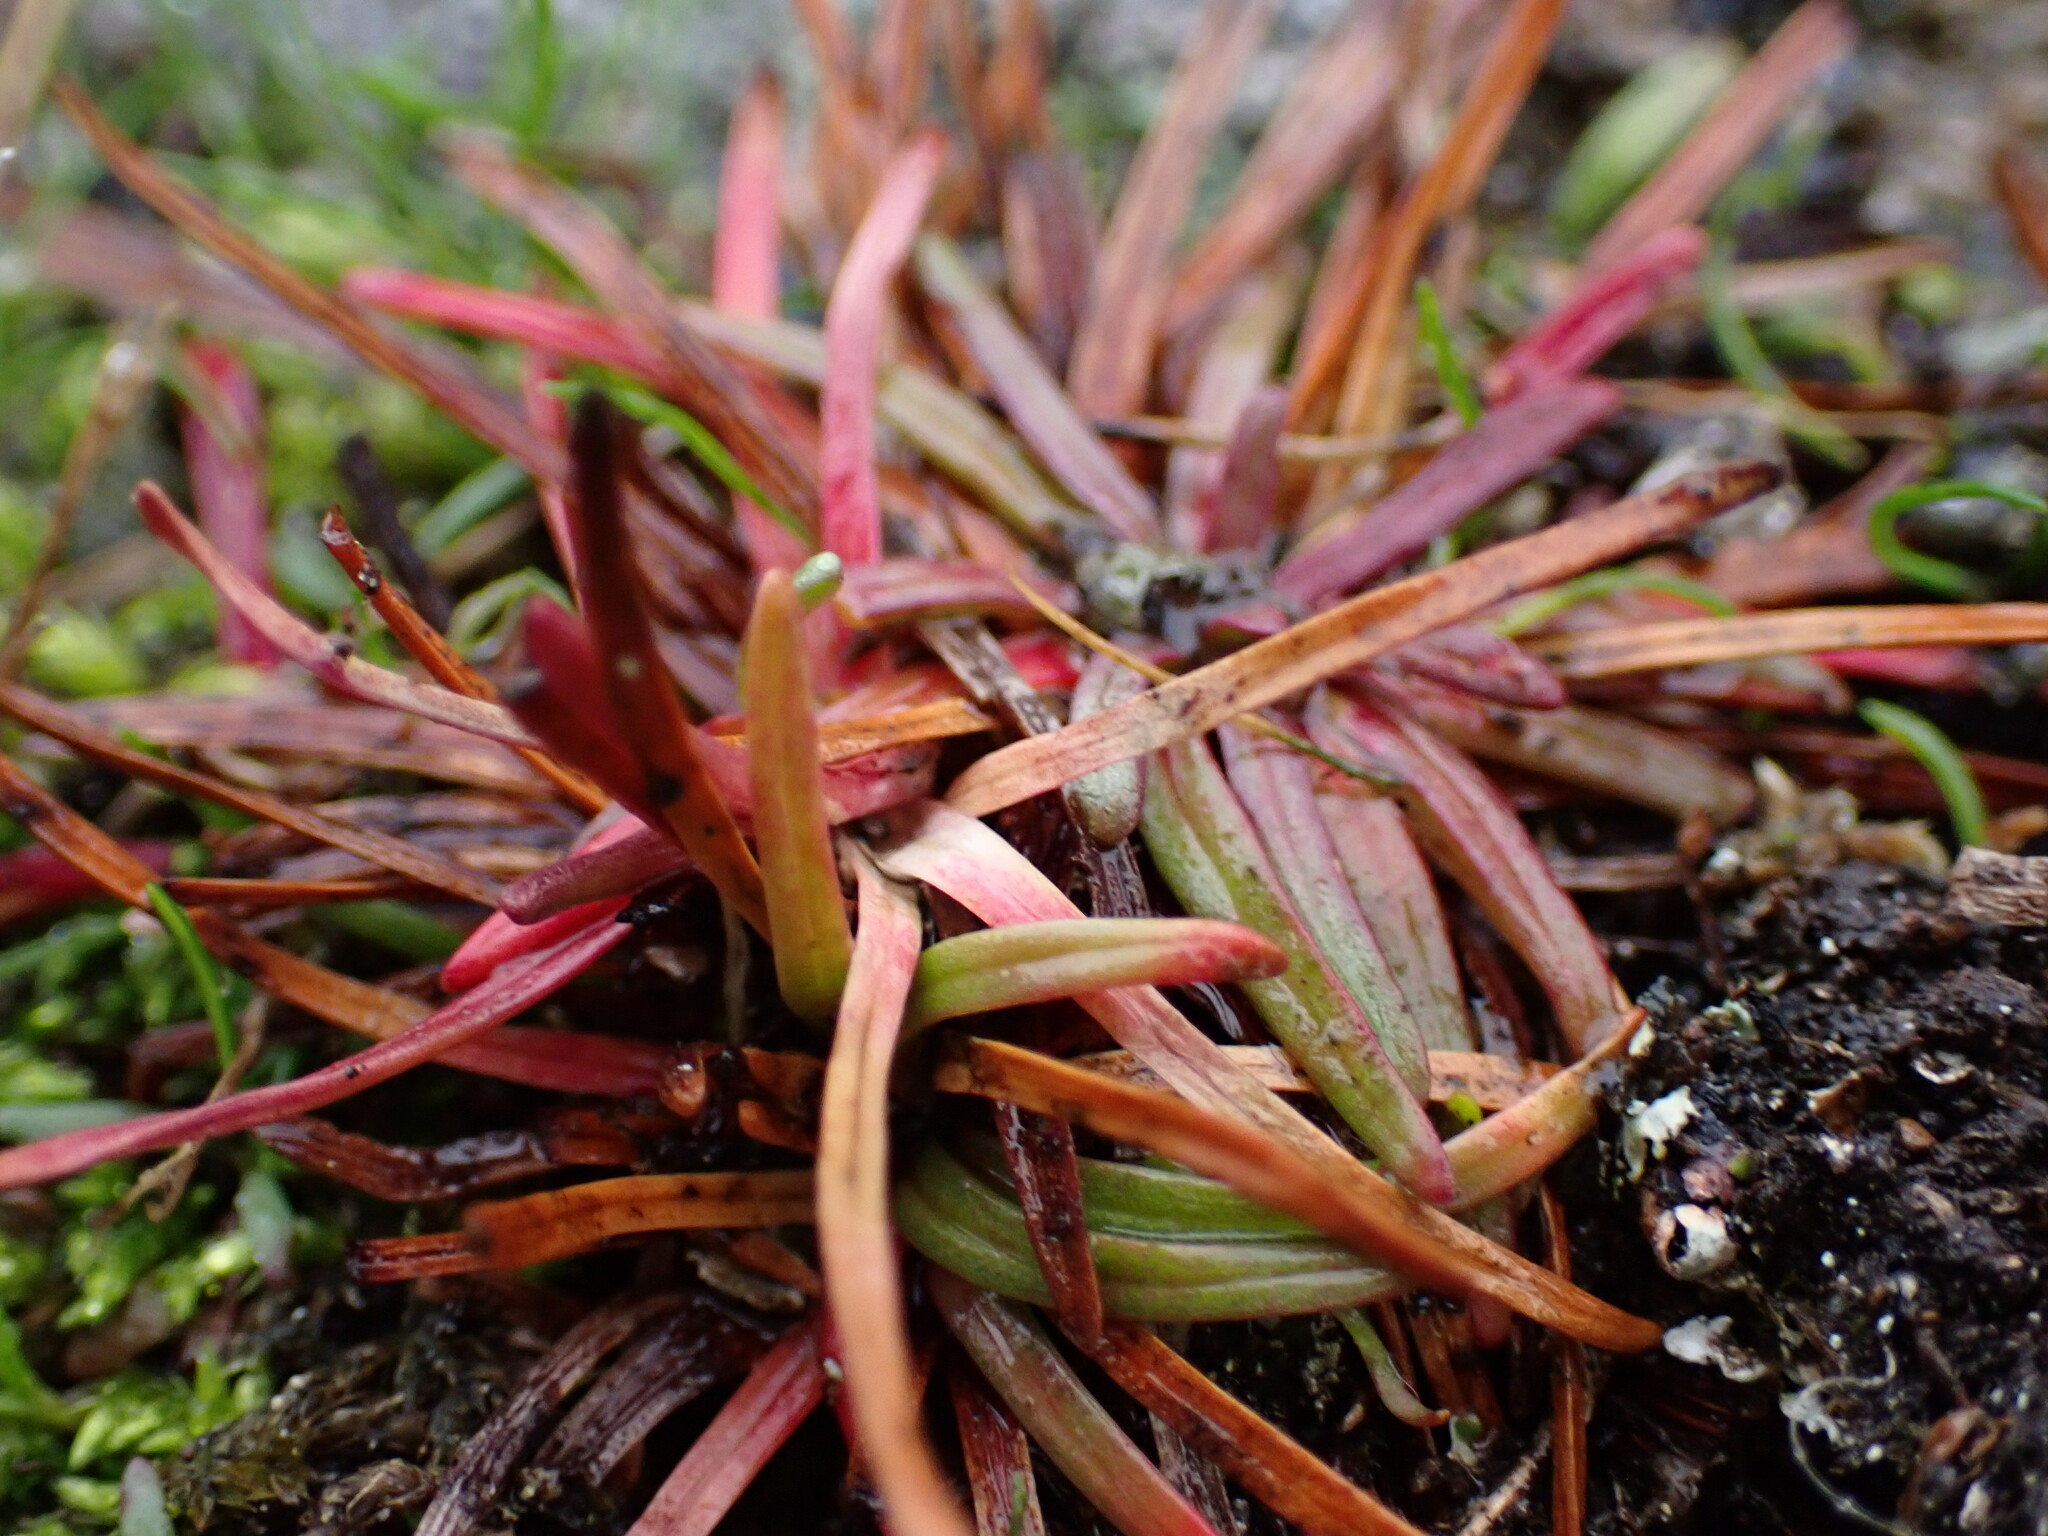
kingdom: Plantae
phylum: Tracheophyta
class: Magnoliopsida
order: Caryophyllales
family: Plumbaginaceae
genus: Armeria
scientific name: Armeria maritima
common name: Thrift
